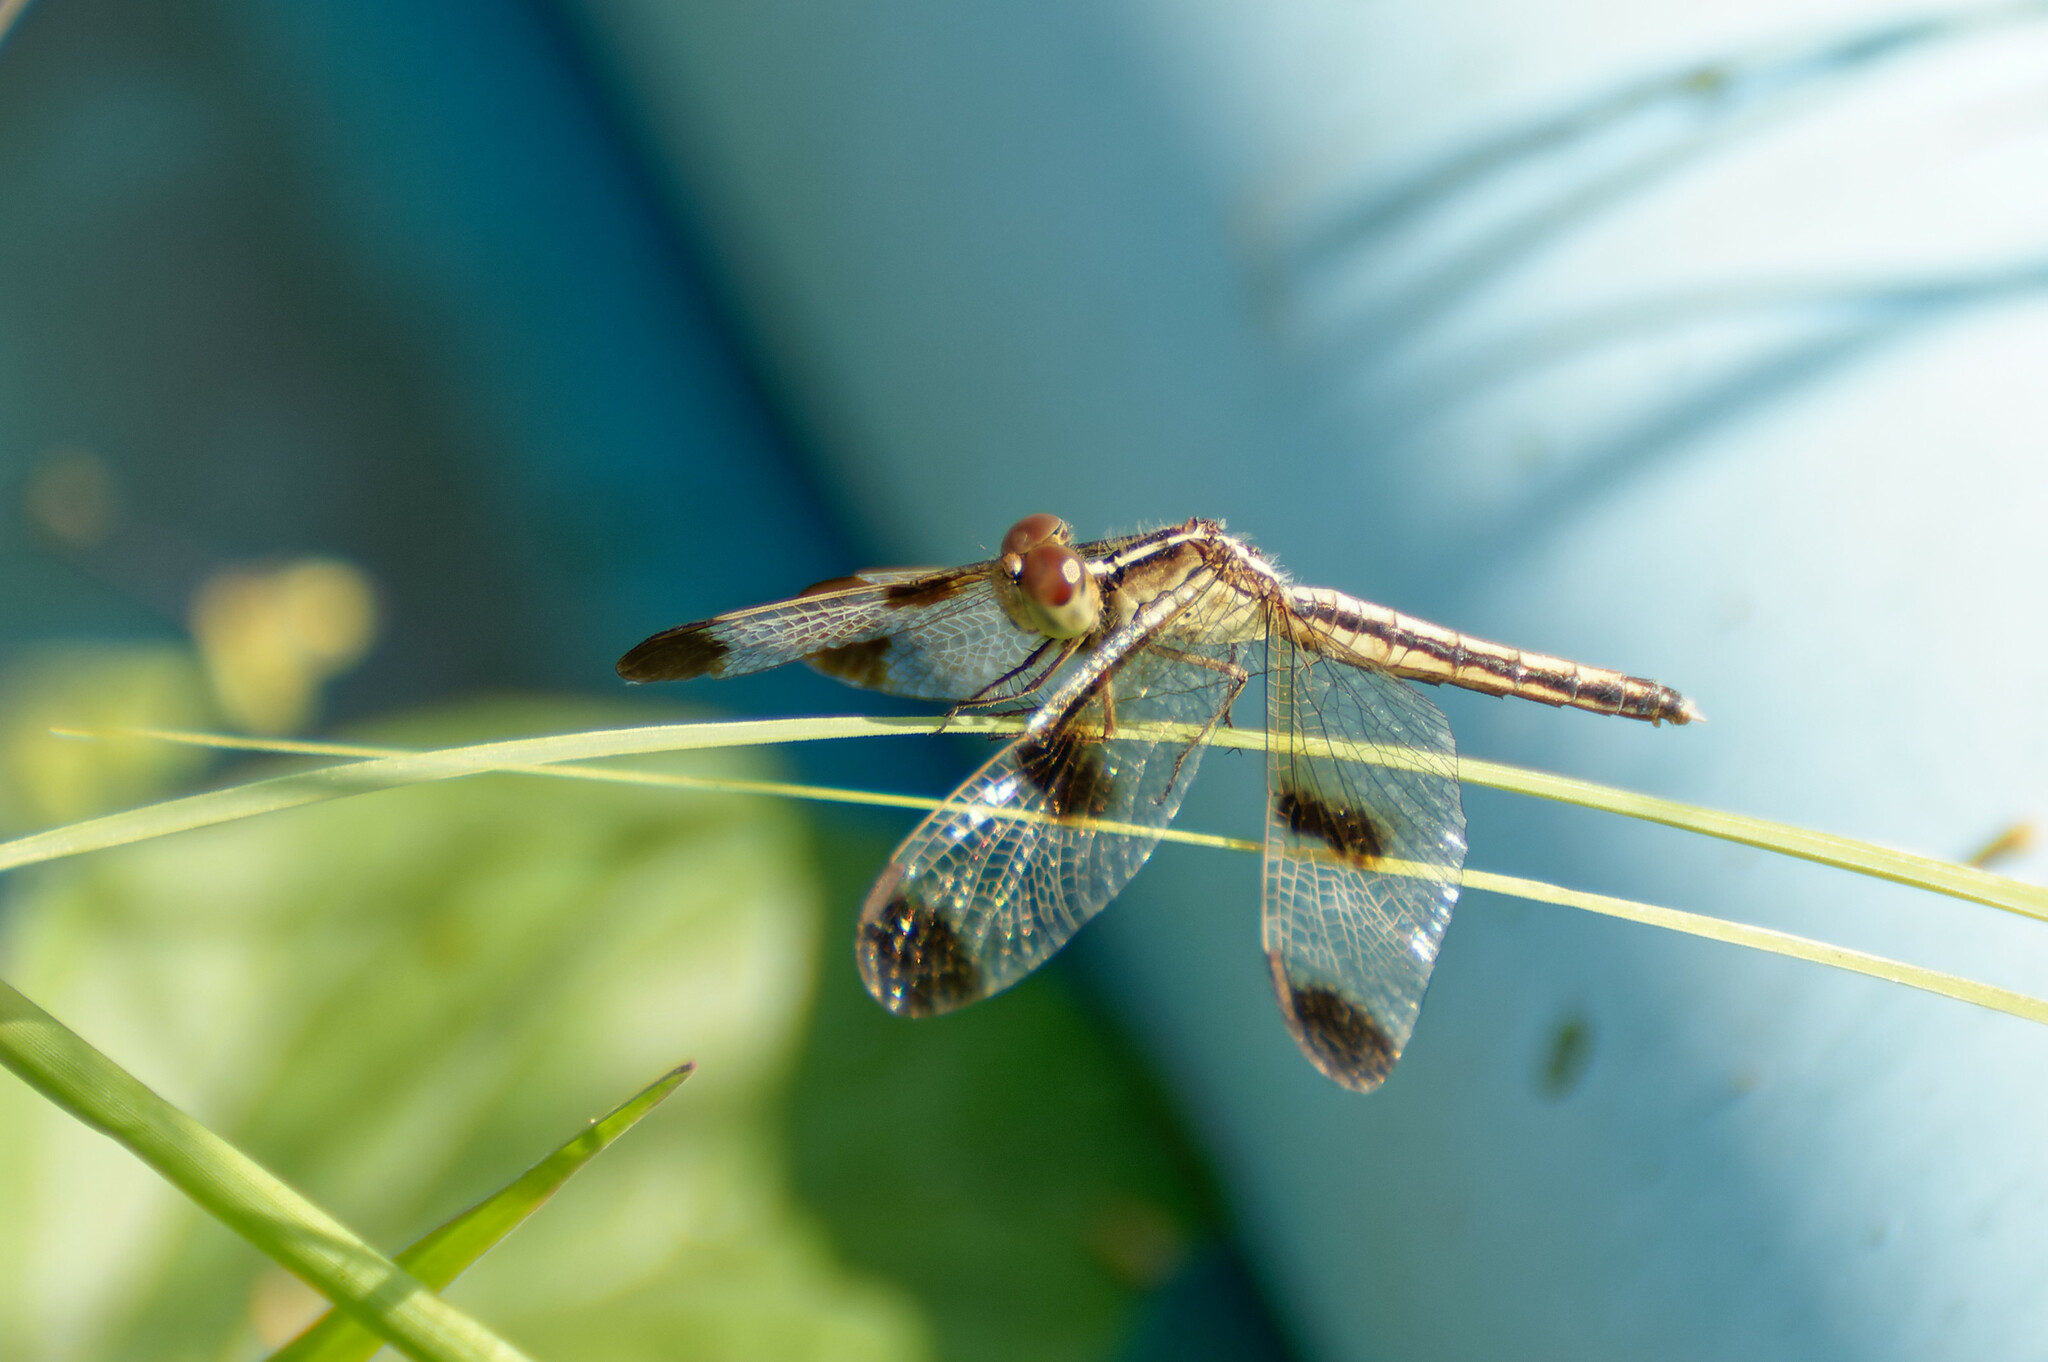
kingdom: Animalia
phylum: Arthropoda
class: Insecta
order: Odonata
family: Libellulidae
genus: Neurothemis
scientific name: Neurothemis tullia
